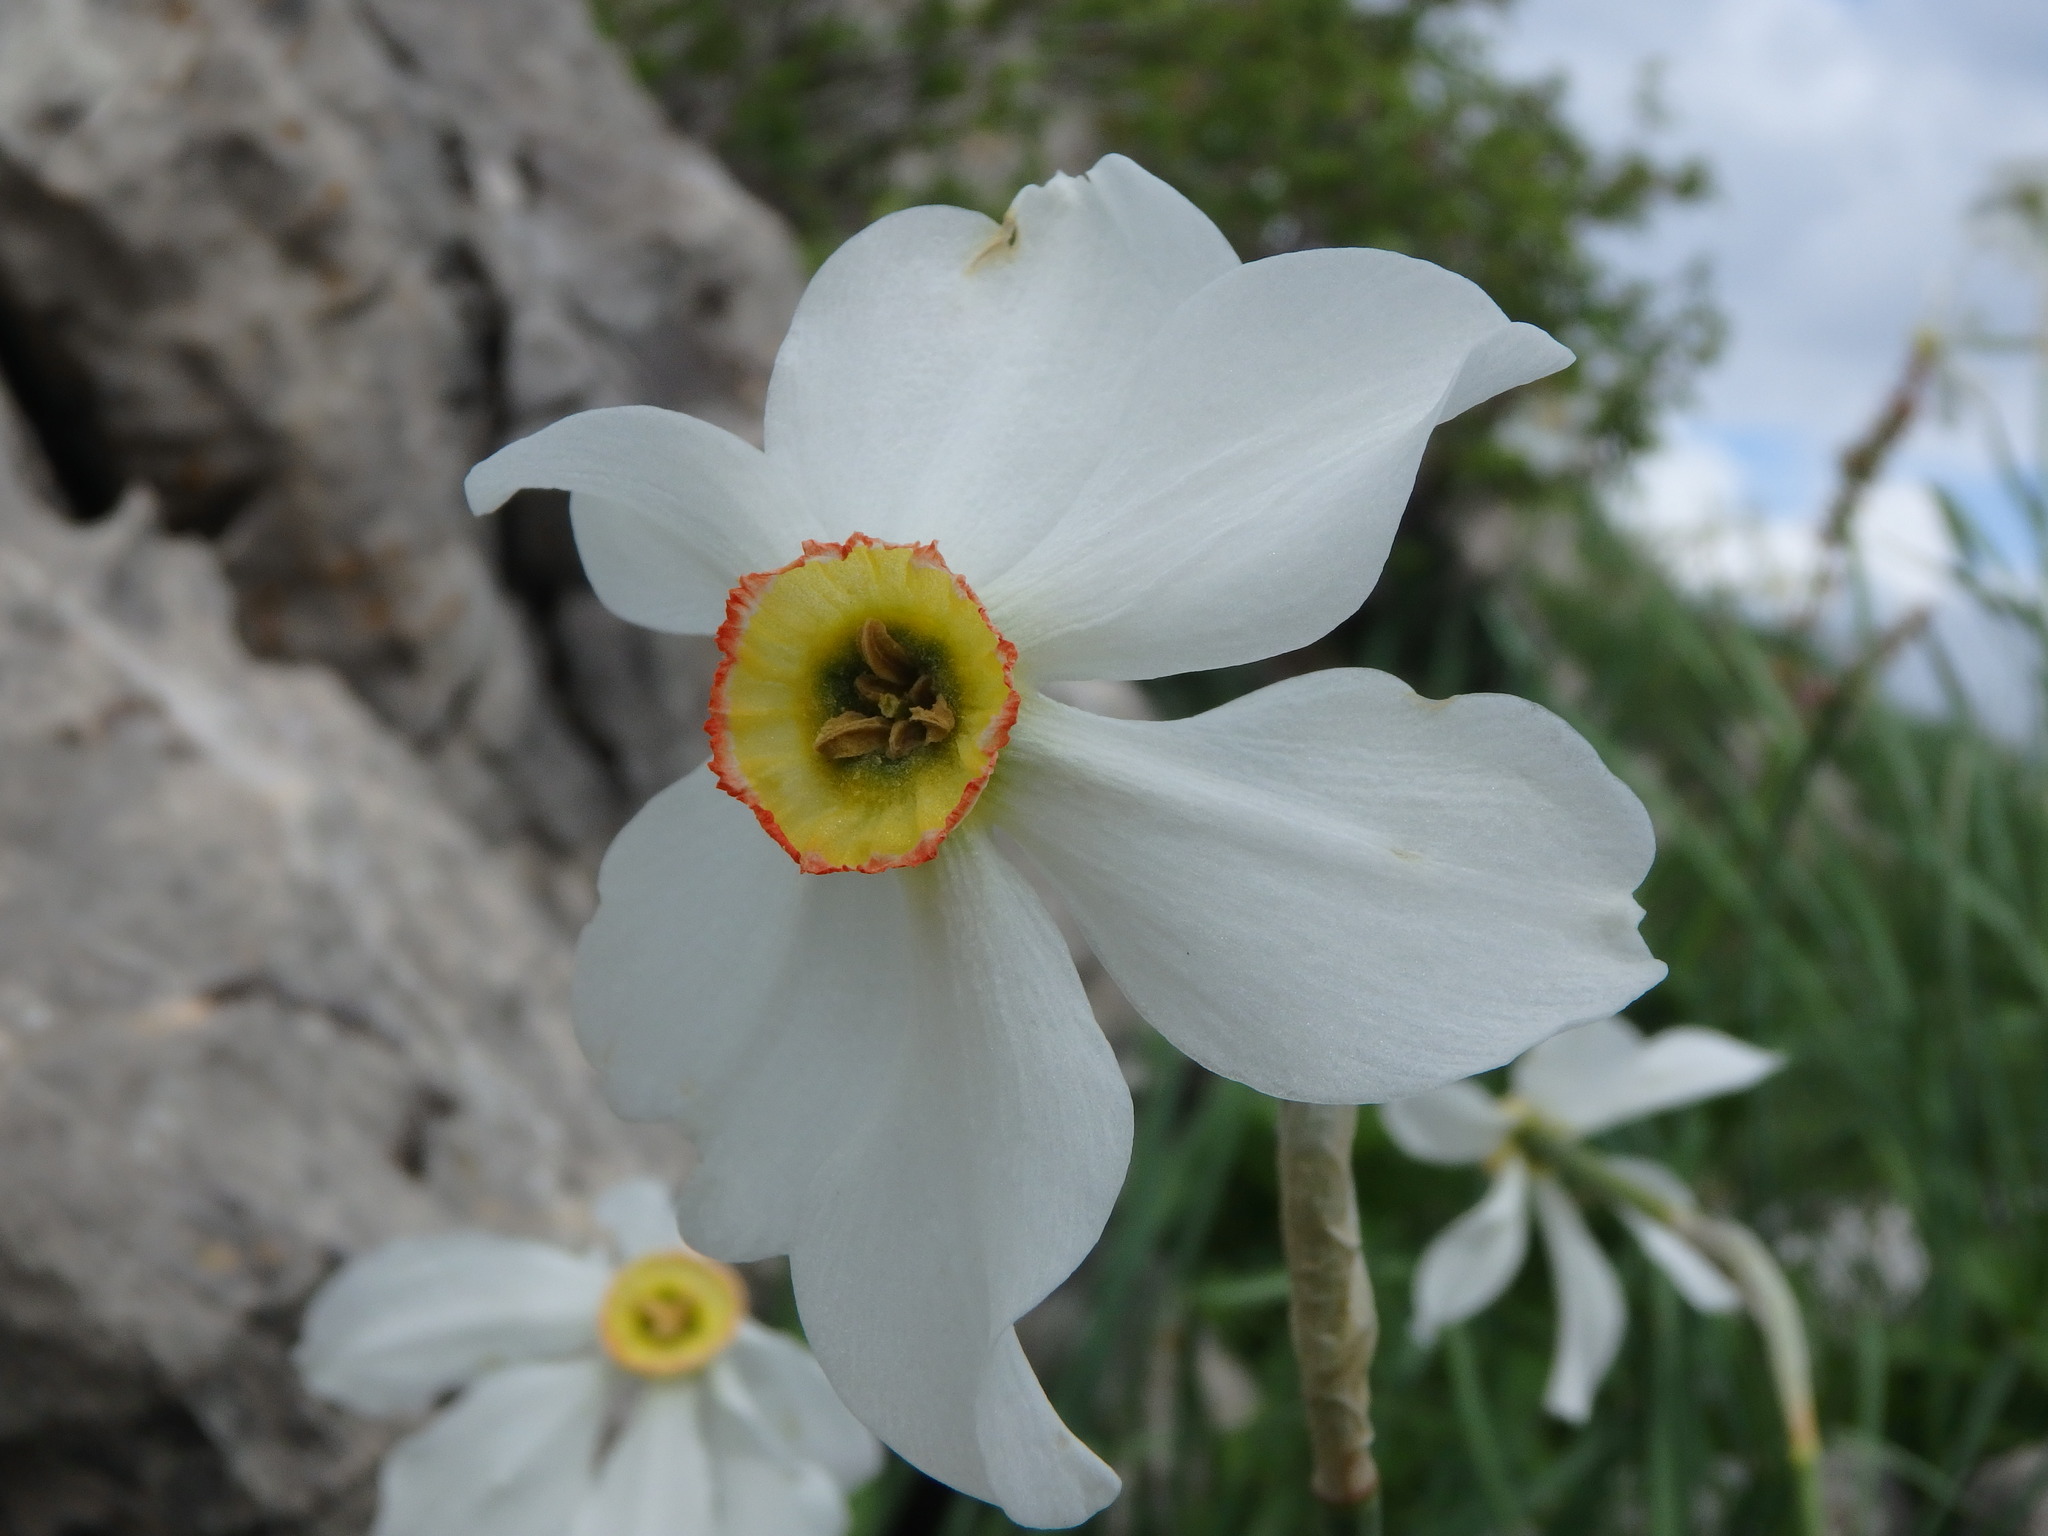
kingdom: Plantae
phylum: Tracheophyta
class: Liliopsida
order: Asparagales
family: Amaryllidaceae
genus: Narcissus
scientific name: Narcissus poeticus
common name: Pheasant's-eye daffodil
